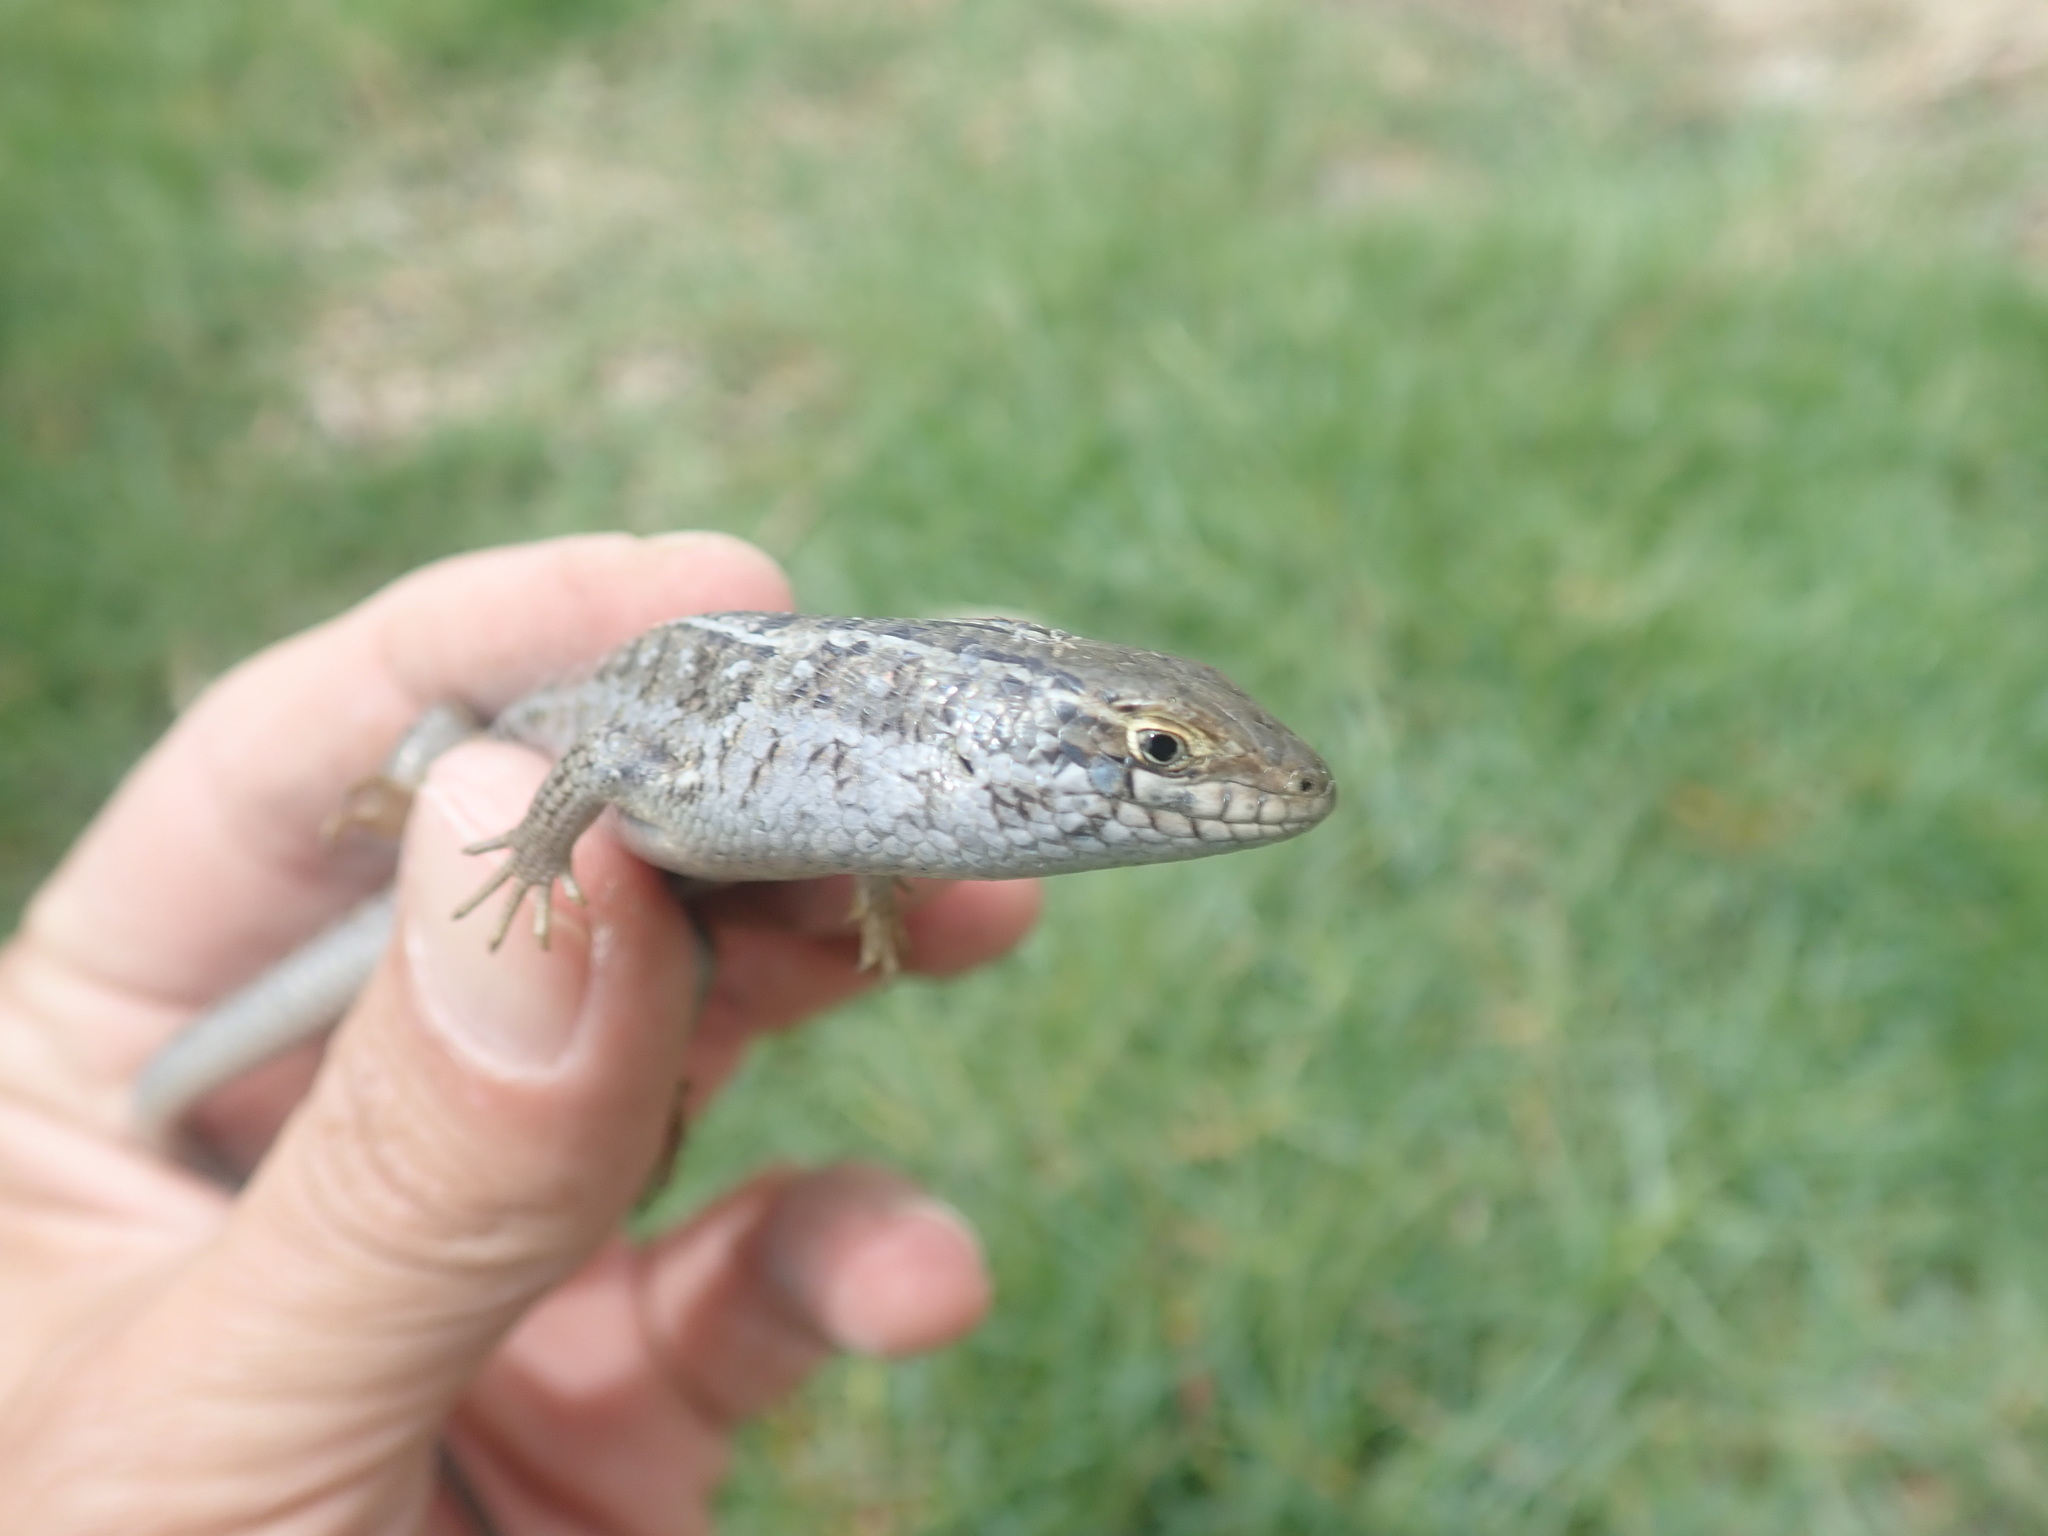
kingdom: Animalia
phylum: Chordata
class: Squamata
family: Scincidae
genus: Trachylepis
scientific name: Trachylepis capensis
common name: Cape skink
